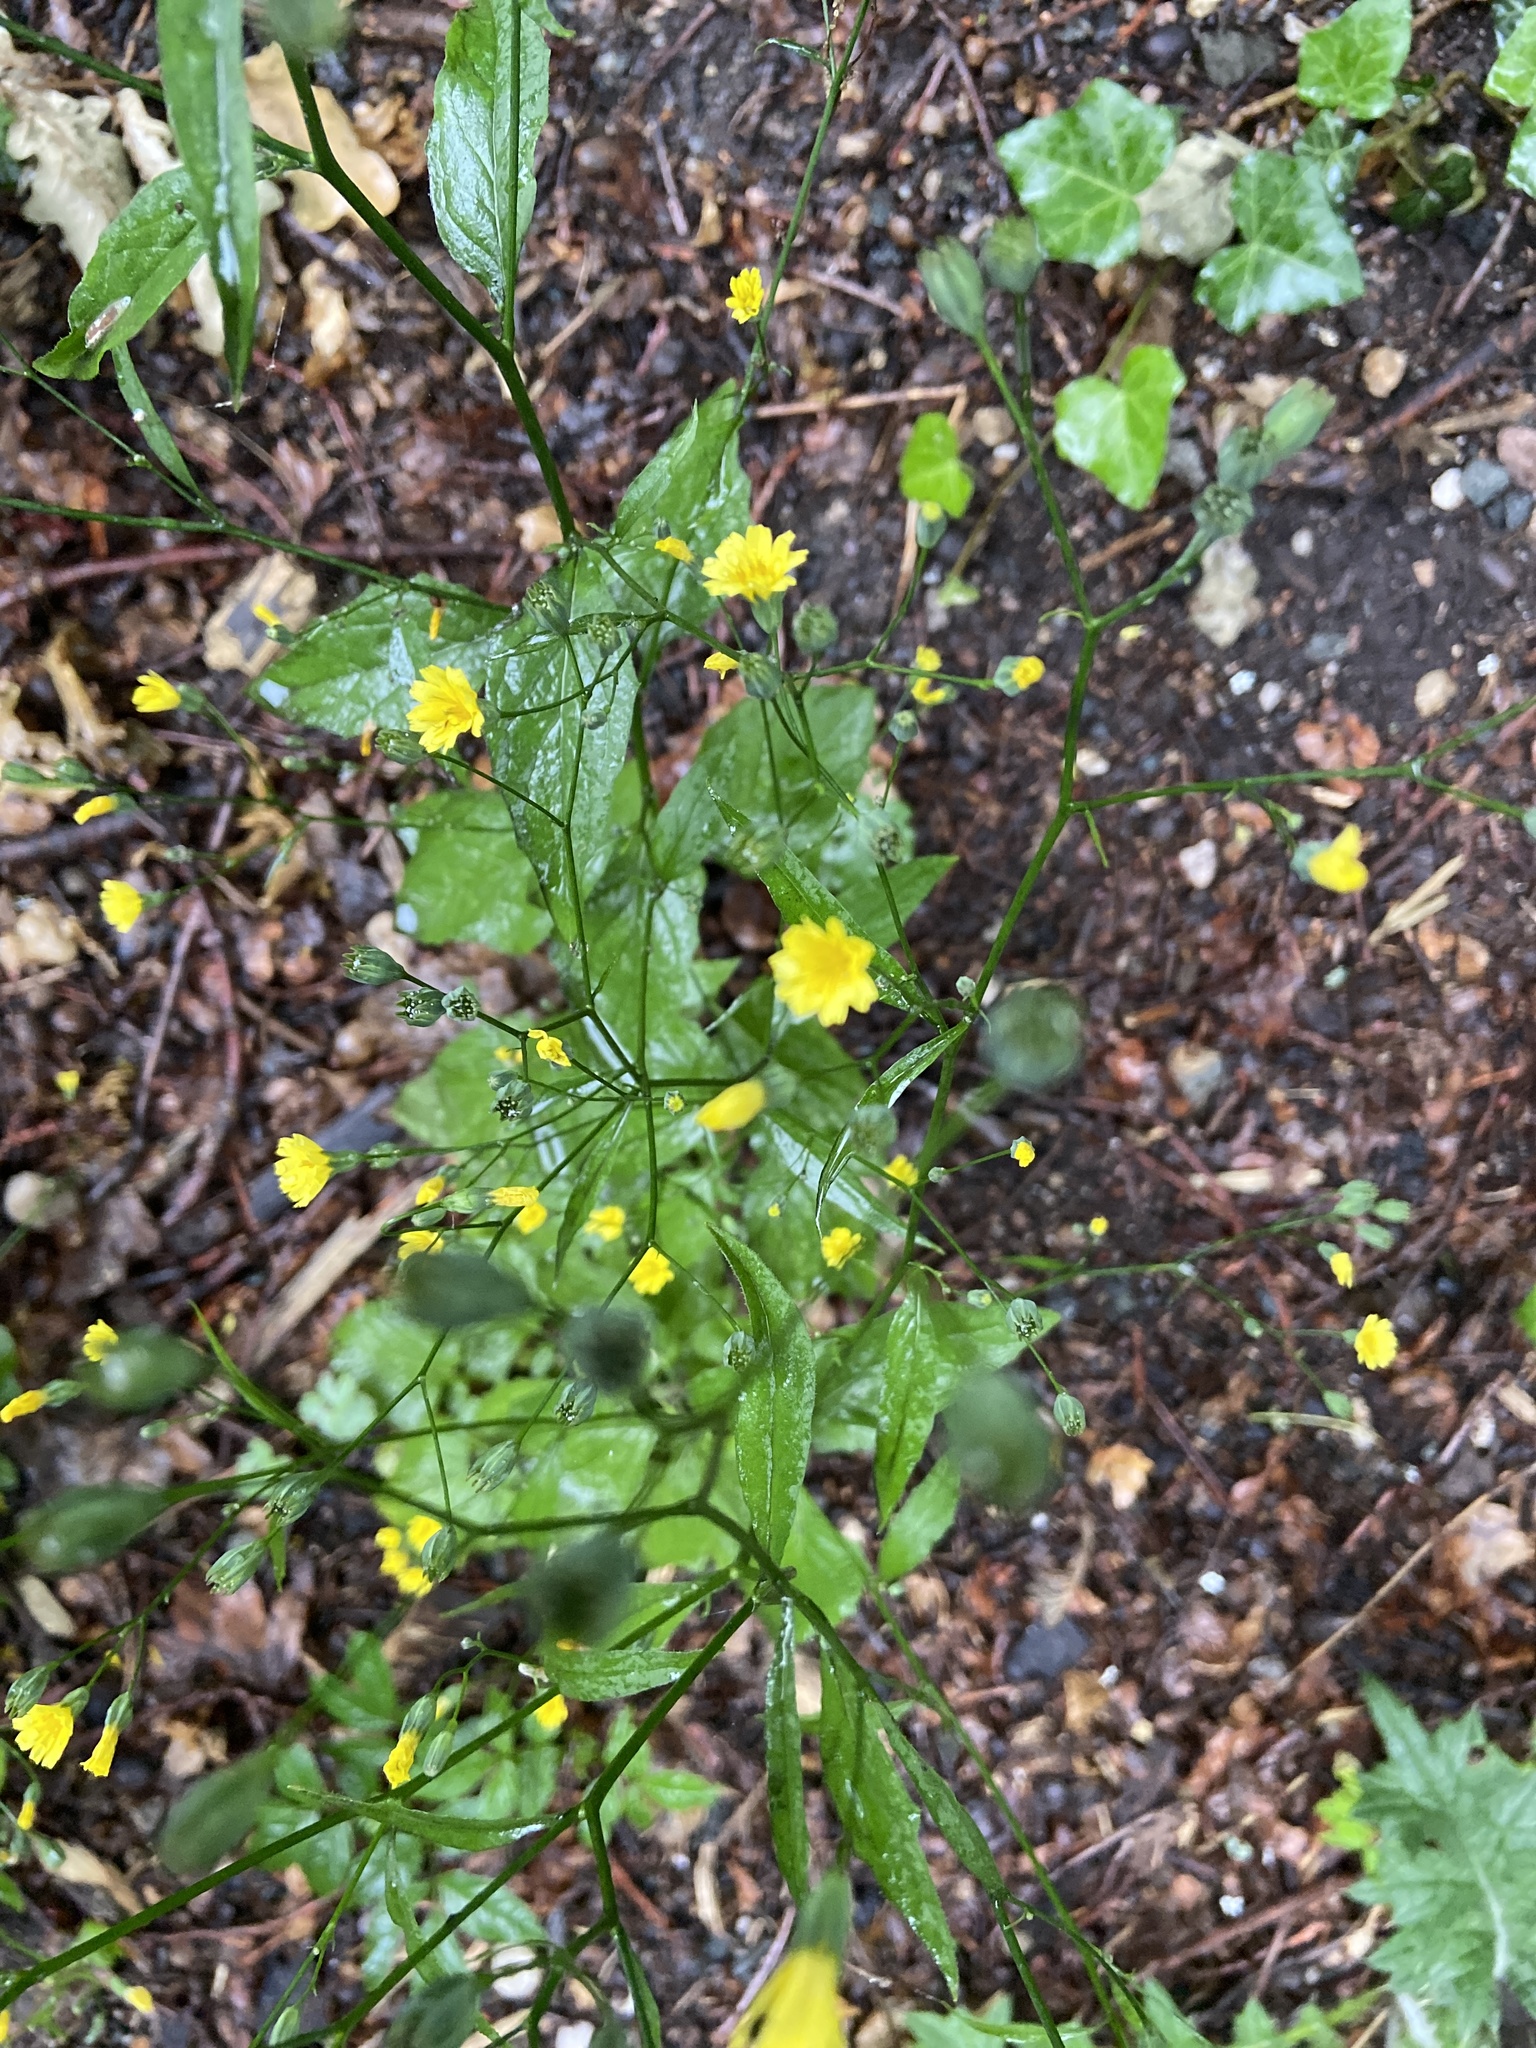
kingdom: Plantae
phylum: Tracheophyta
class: Magnoliopsida
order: Asterales
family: Asteraceae
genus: Lapsana
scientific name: Lapsana communis
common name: Nipplewort
